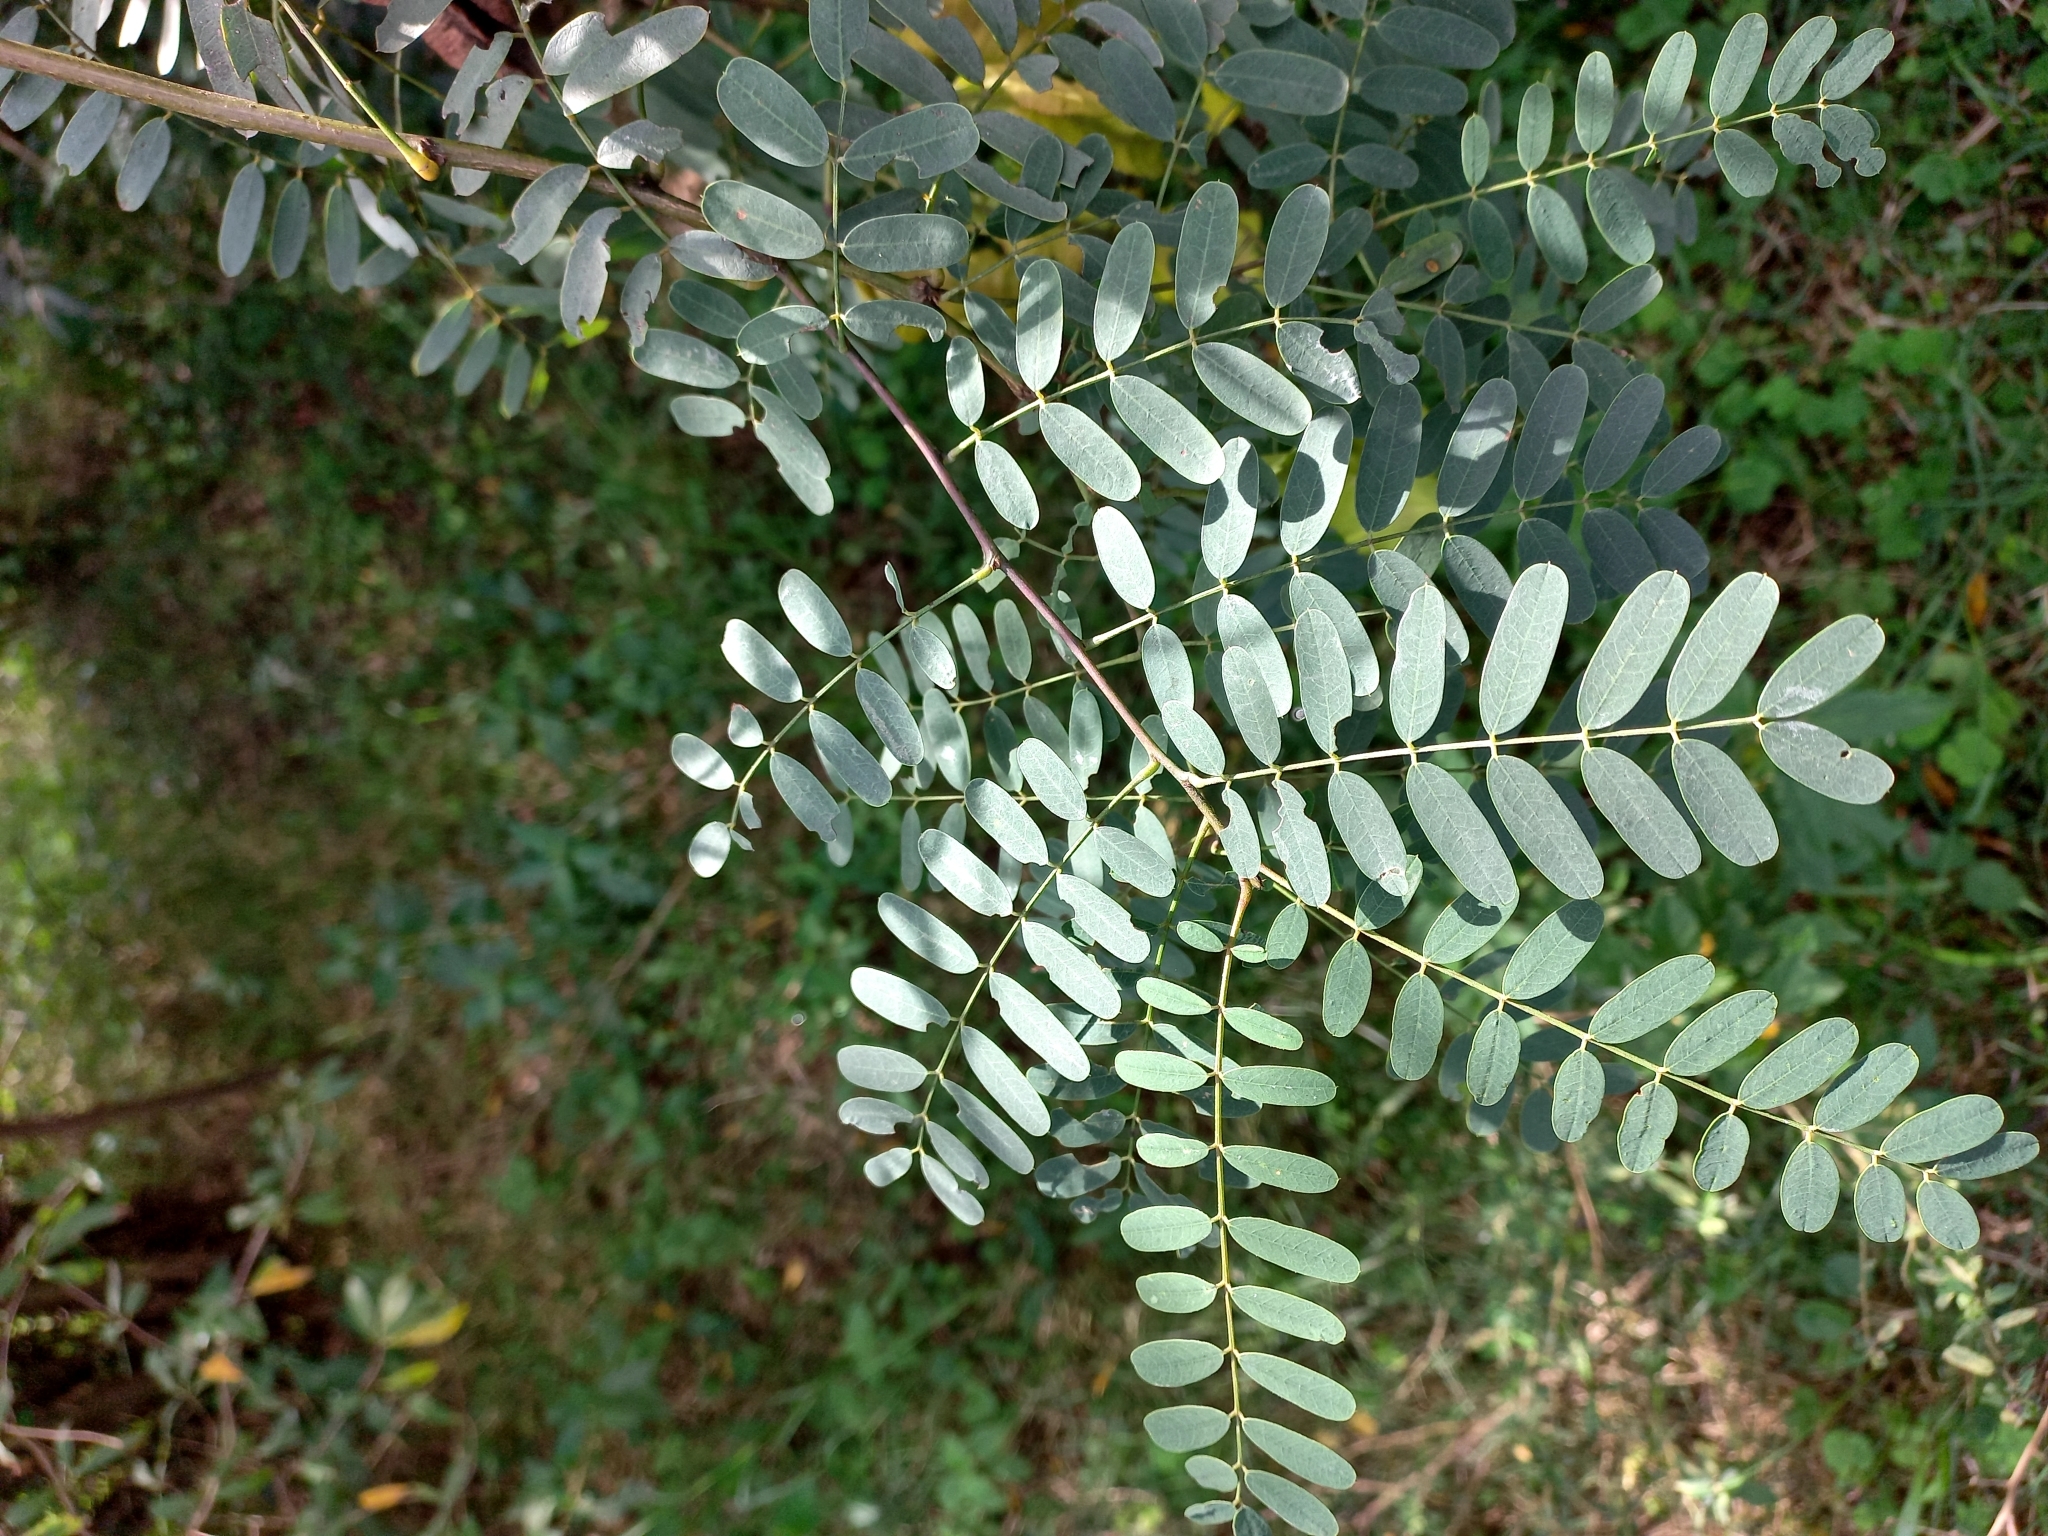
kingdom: Plantae
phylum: Tracheophyta
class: Magnoliopsida
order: Fabales
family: Fabaceae
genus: Sesbania
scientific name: Sesbania punicea
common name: Rattlebox
